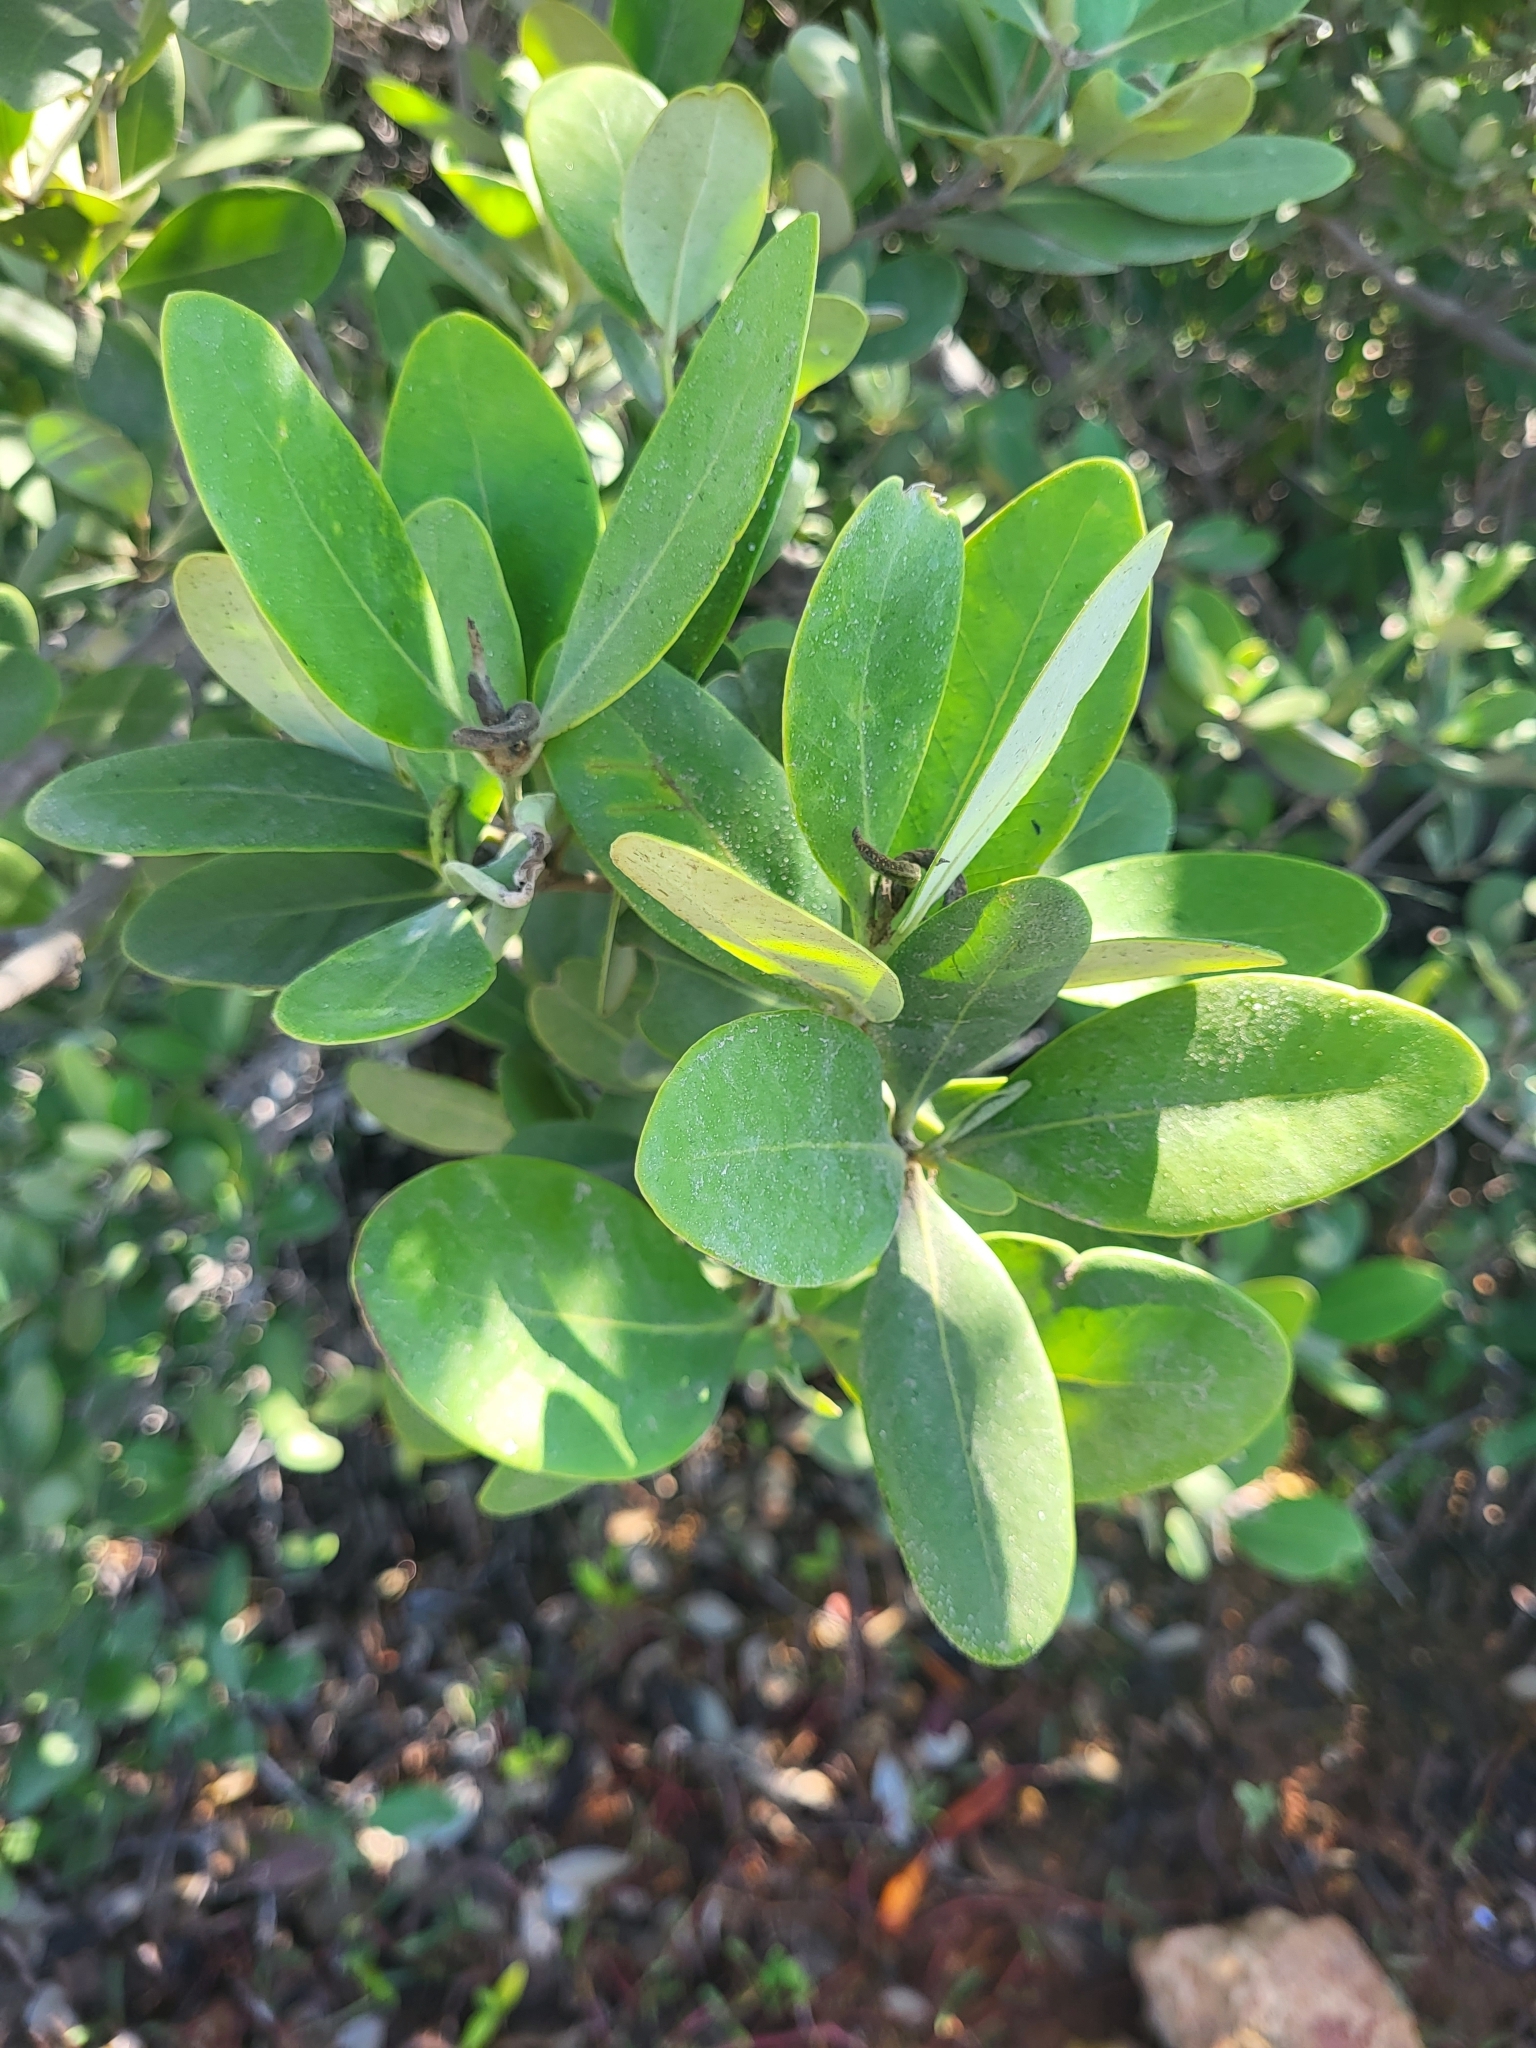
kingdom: Plantae
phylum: Tracheophyta
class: Magnoliopsida
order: Lamiales
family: Acanthaceae
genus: Avicennia
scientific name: Avicennia germinans
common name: Black mangrove
